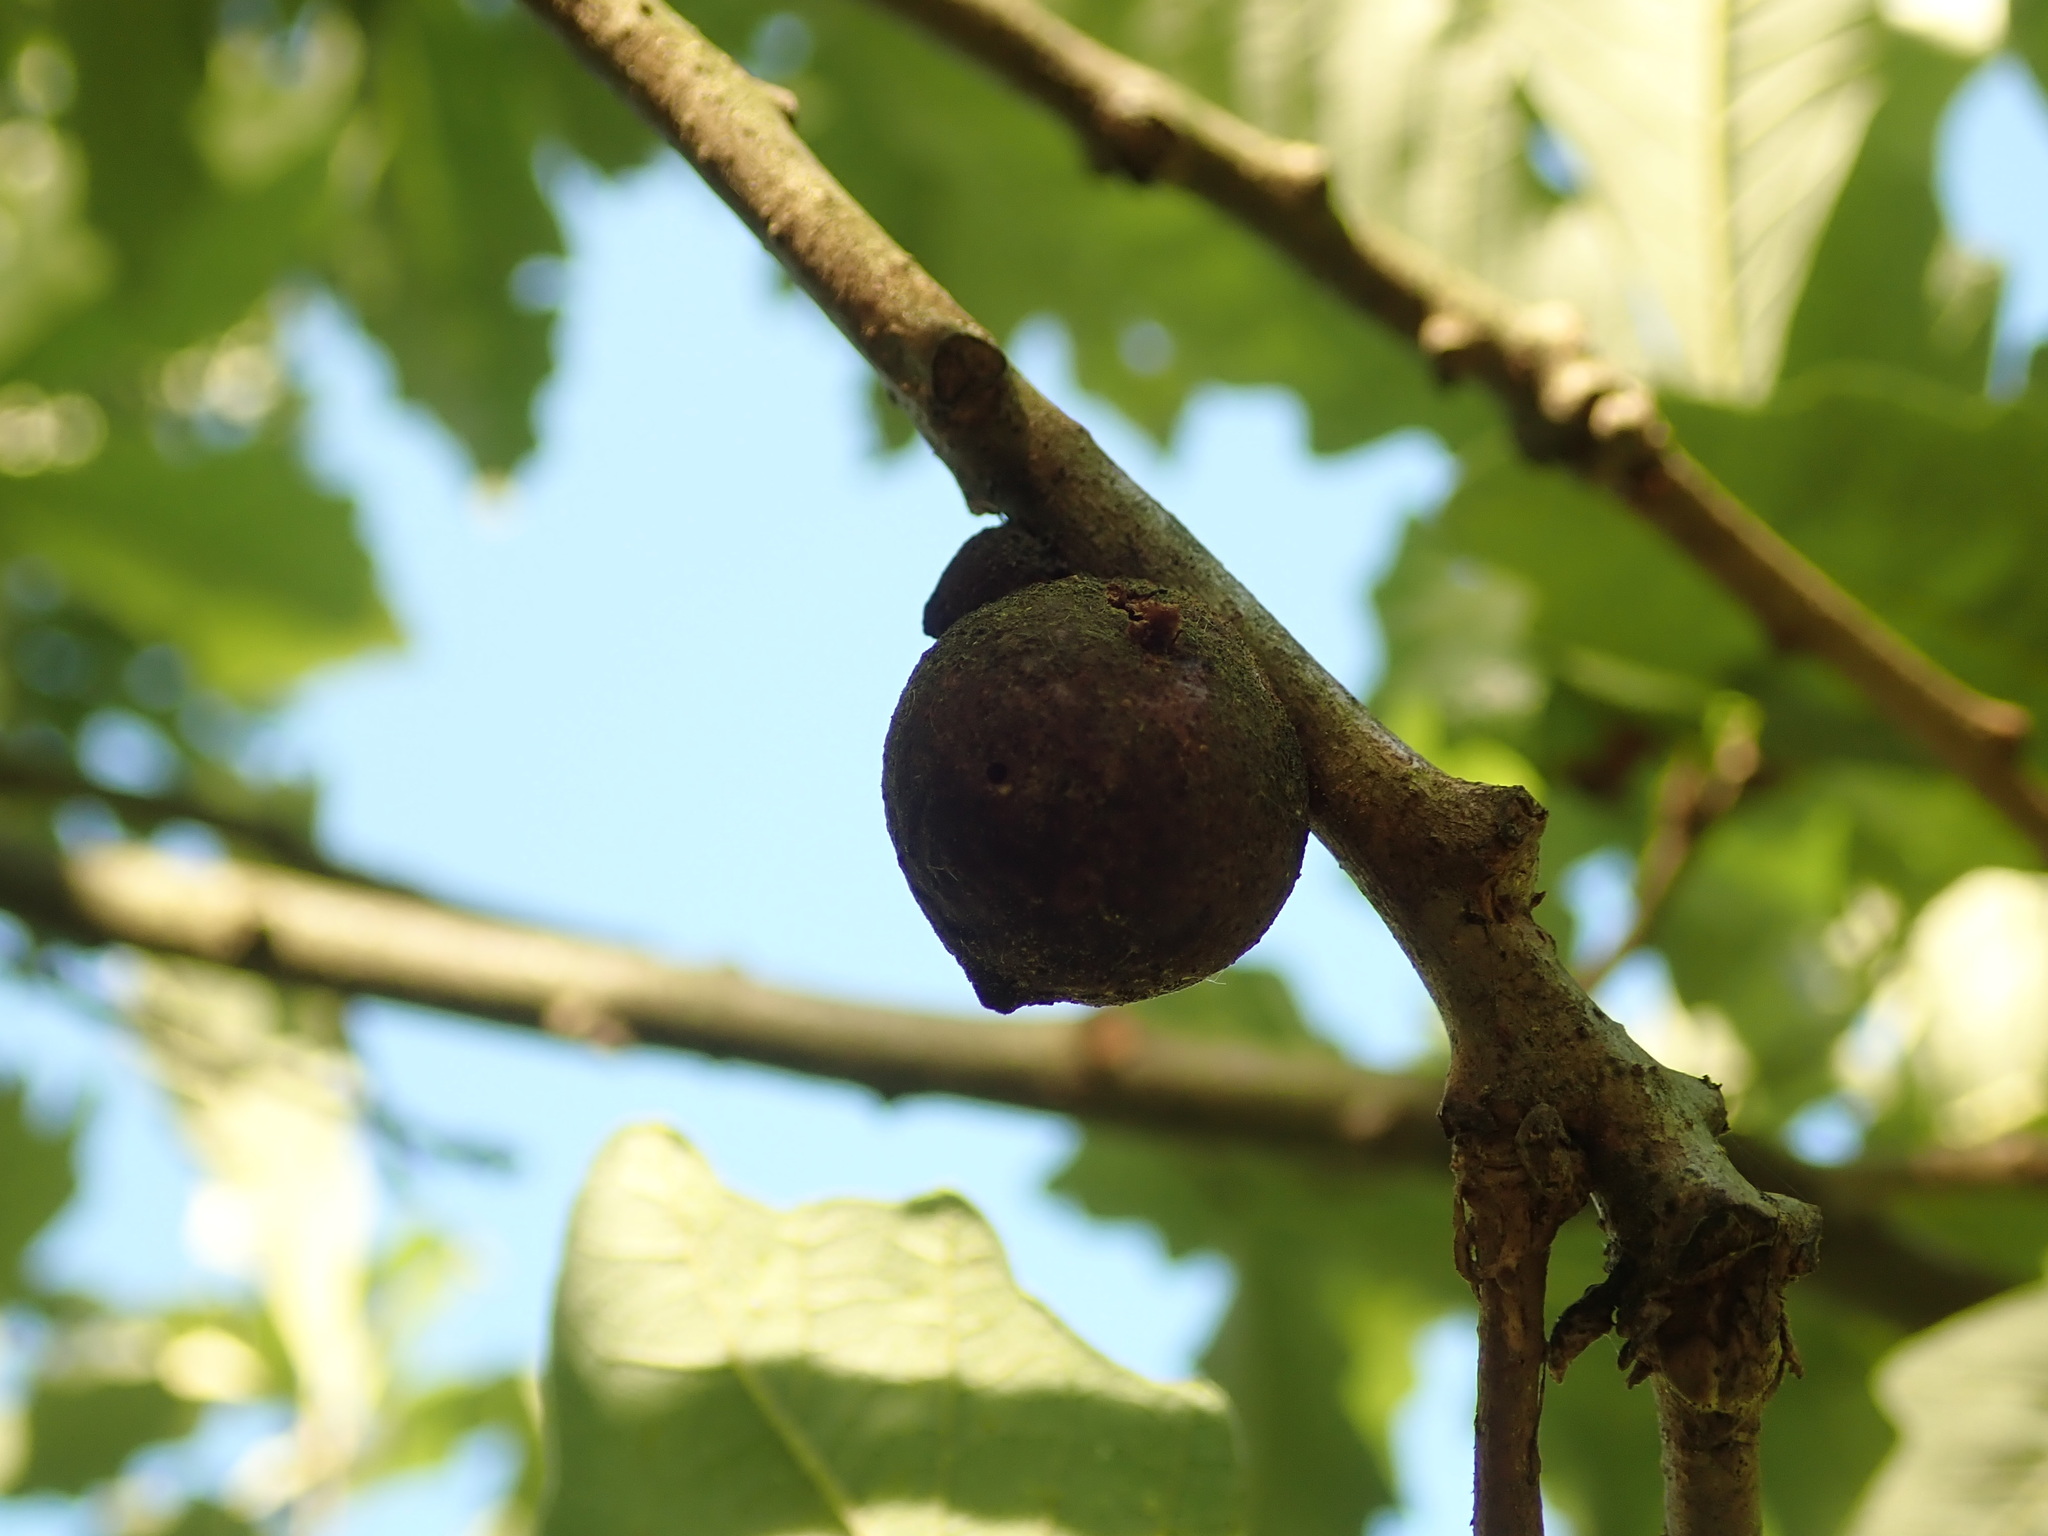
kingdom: Animalia
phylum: Arthropoda
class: Insecta
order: Hymenoptera
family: Cynipidae
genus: Disholcaspis
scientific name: Disholcaspis
